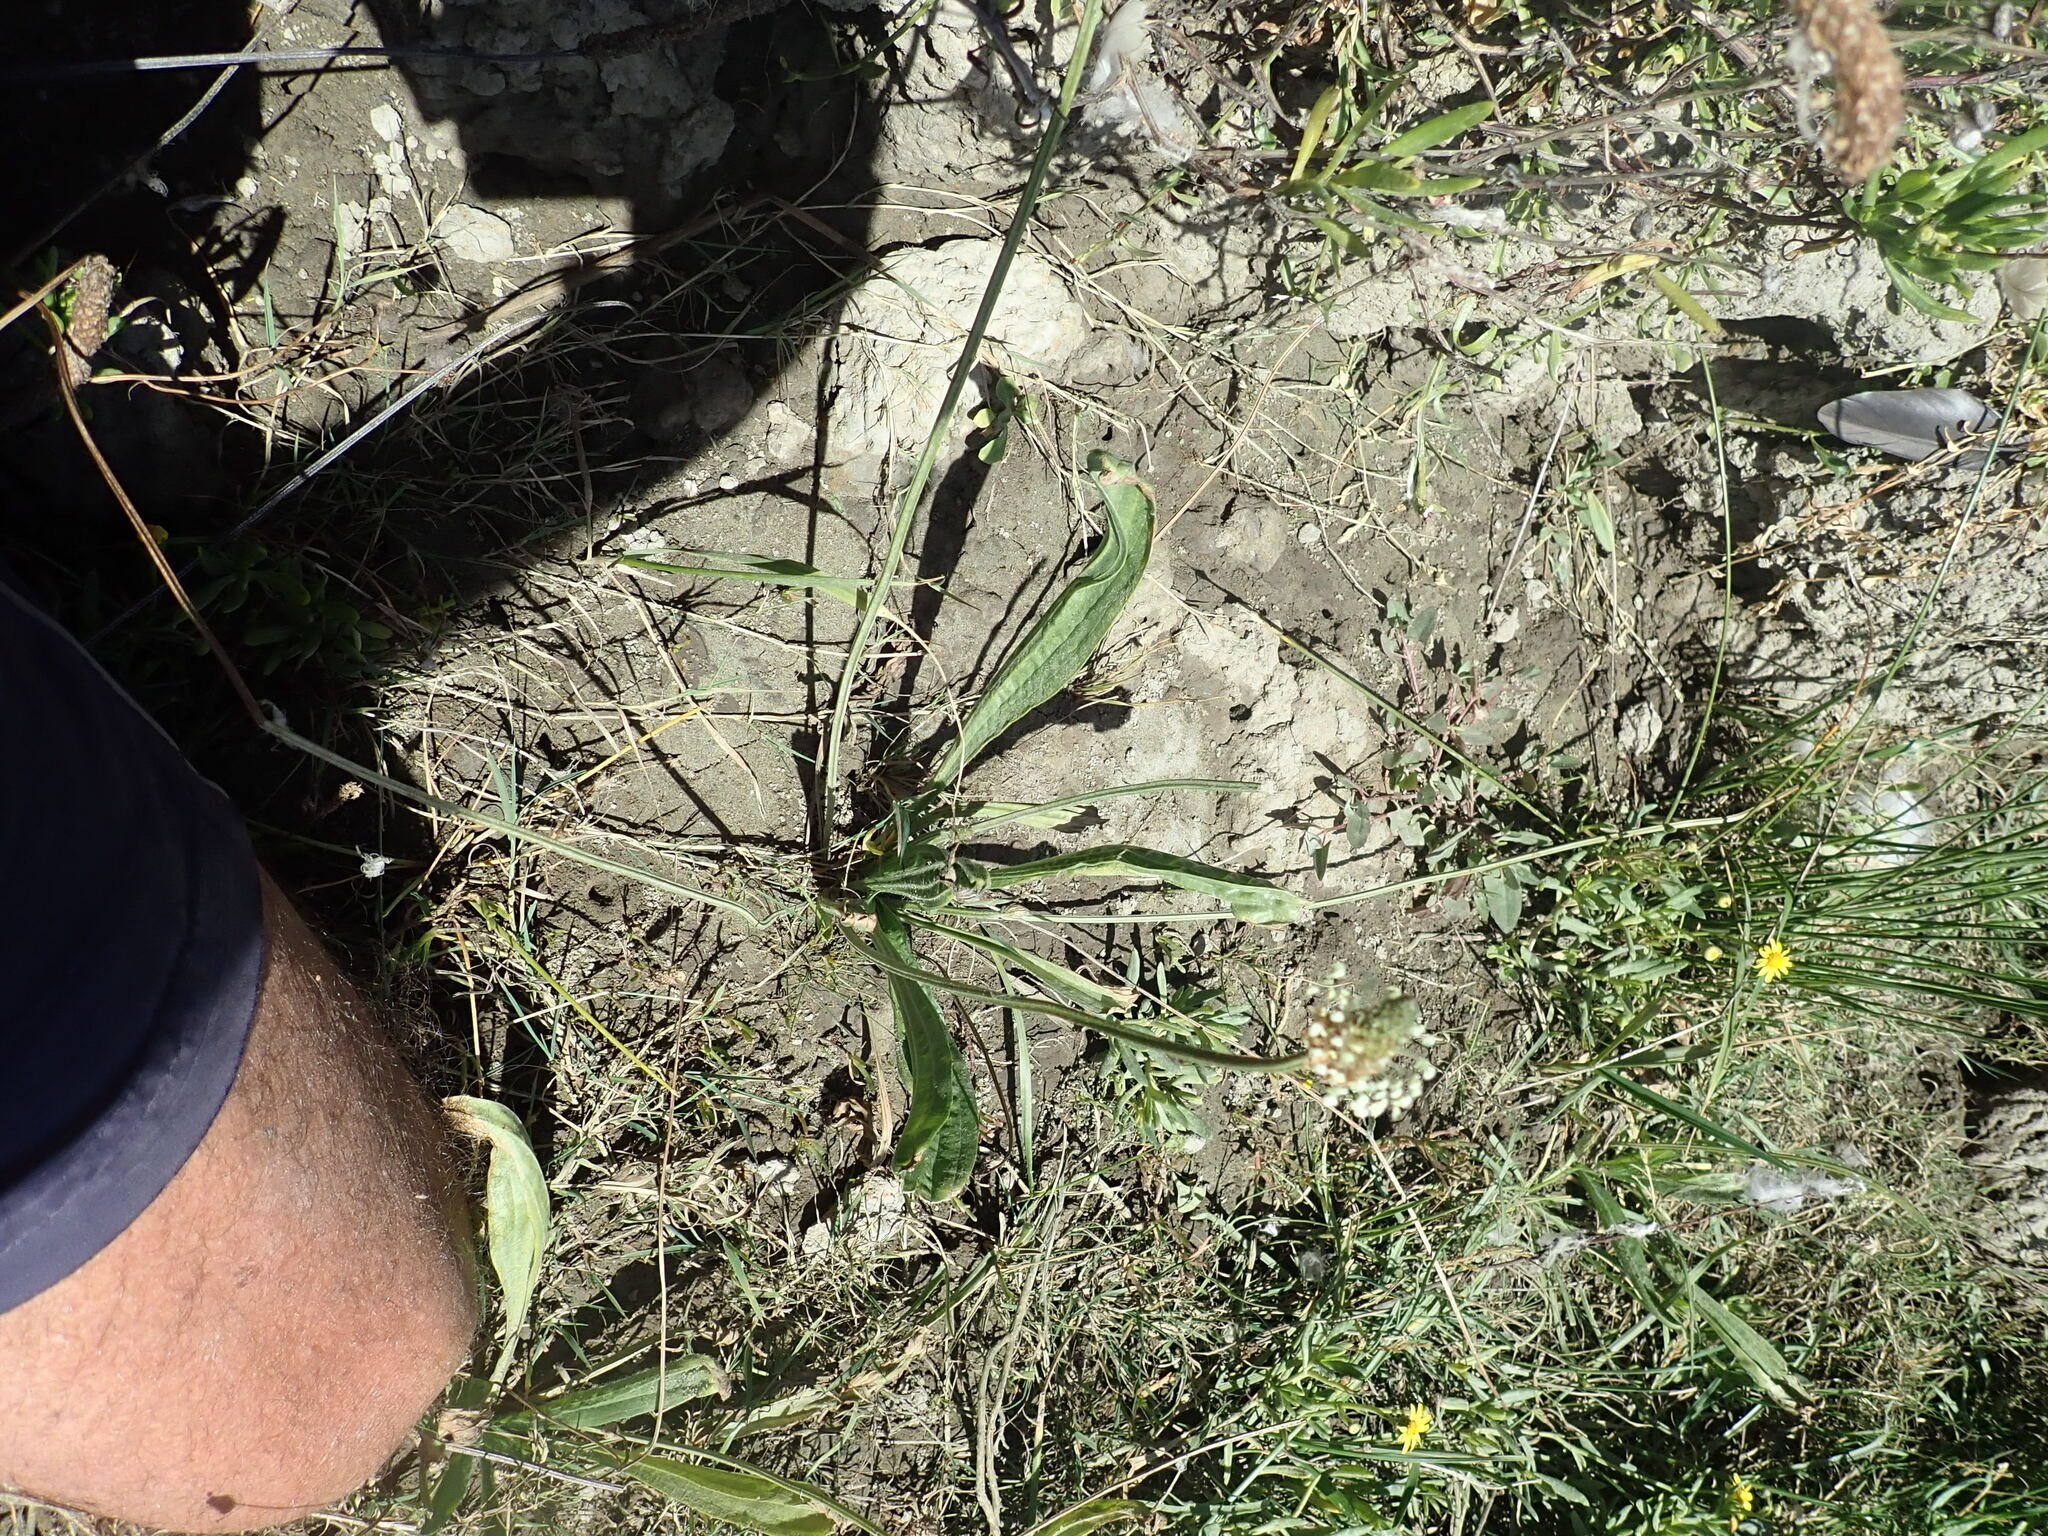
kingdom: Plantae
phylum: Tracheophyta
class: Magnoliopsida
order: Lamiales
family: Plantaginaceae
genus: Plantago
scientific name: Plantago lanceolata
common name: Ribwort plantain
